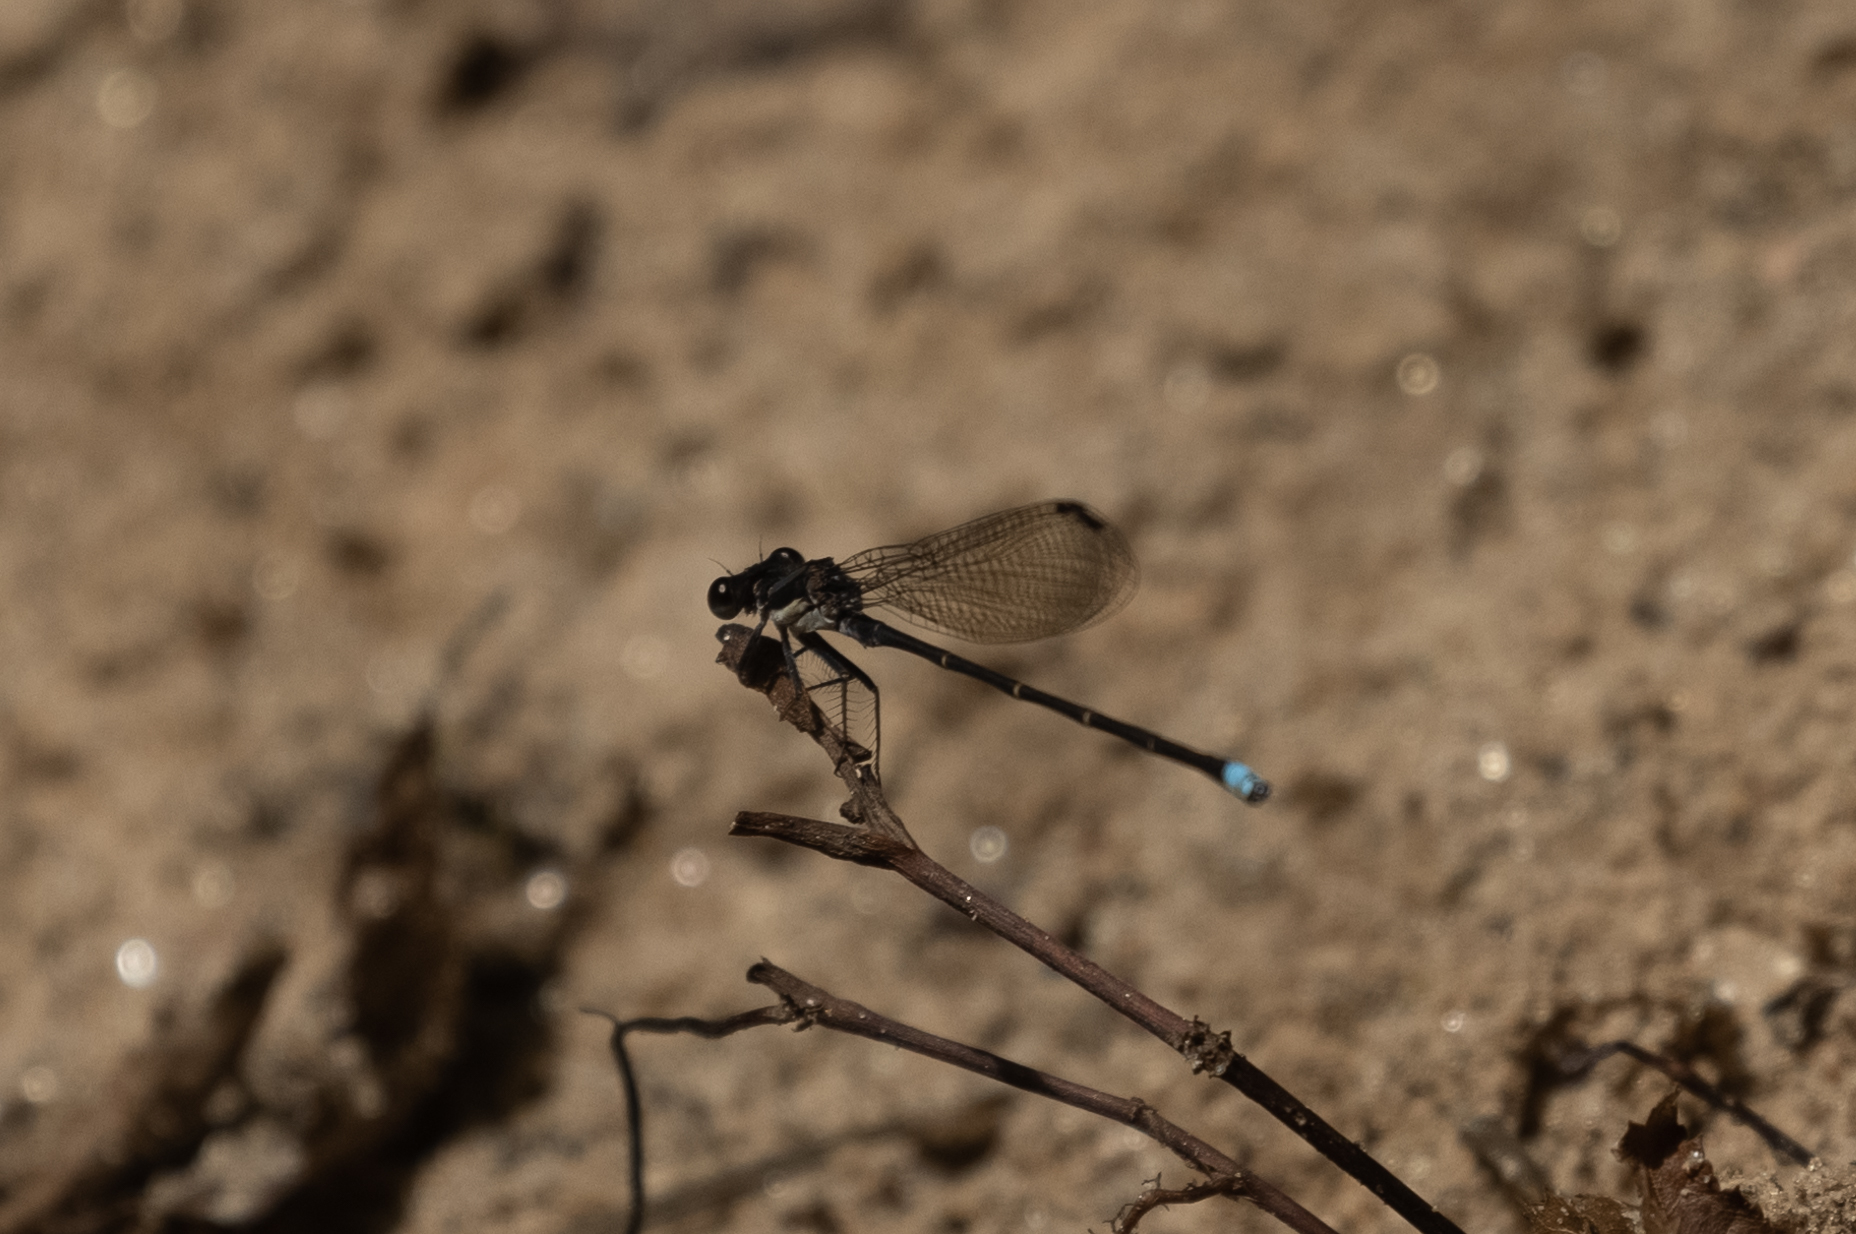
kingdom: Animalia
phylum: Arthropoda
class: Insecta
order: Odonata
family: Coenagrionidae
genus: Argia
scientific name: Argia tibialis
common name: Blue-tipped dancer
